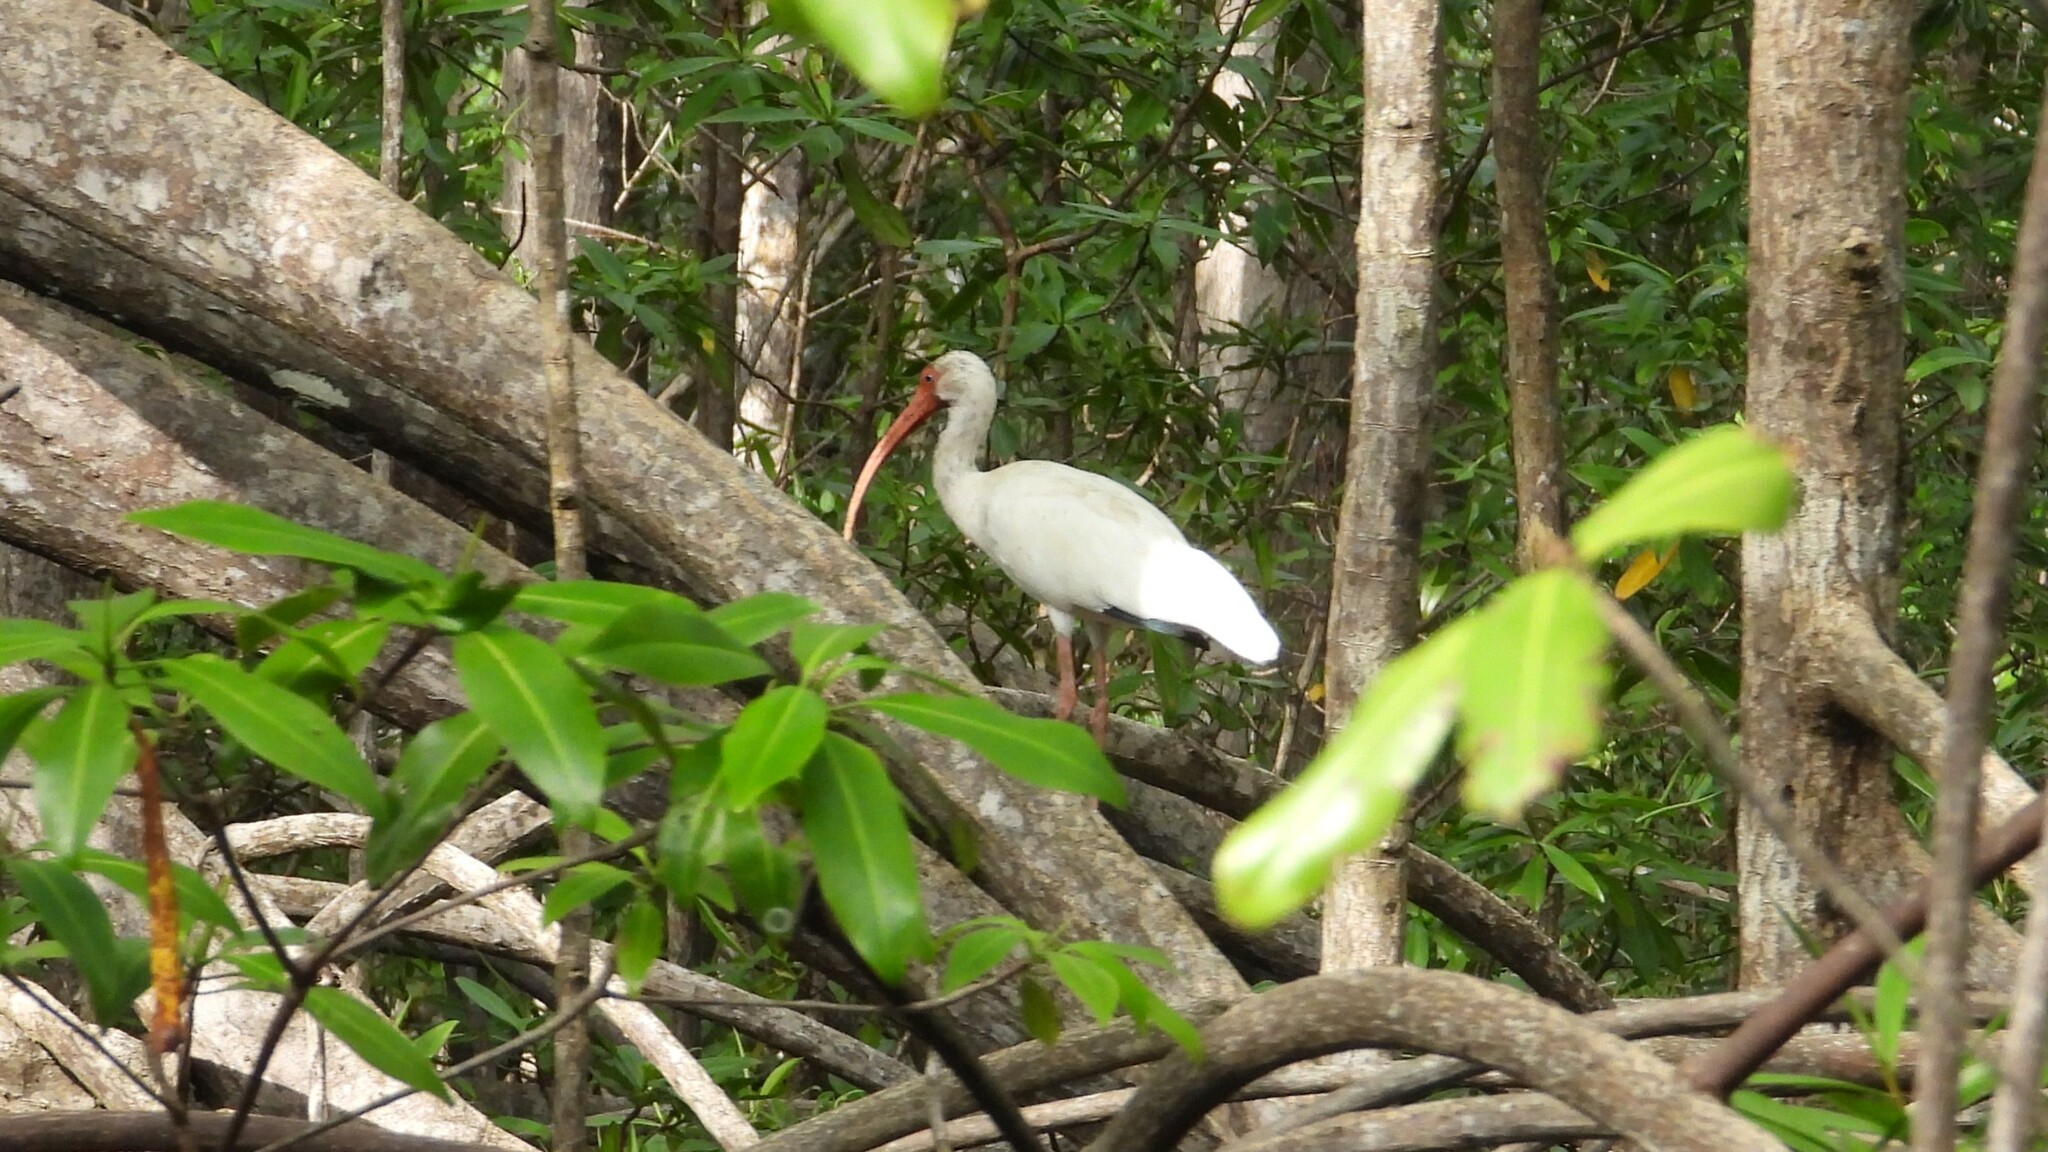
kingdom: Animalia
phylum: Chordata
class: Aves
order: Pelecaniformes
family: Threskiornithidae
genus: Eudocimus
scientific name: Eudocimus albus
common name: White ibis
